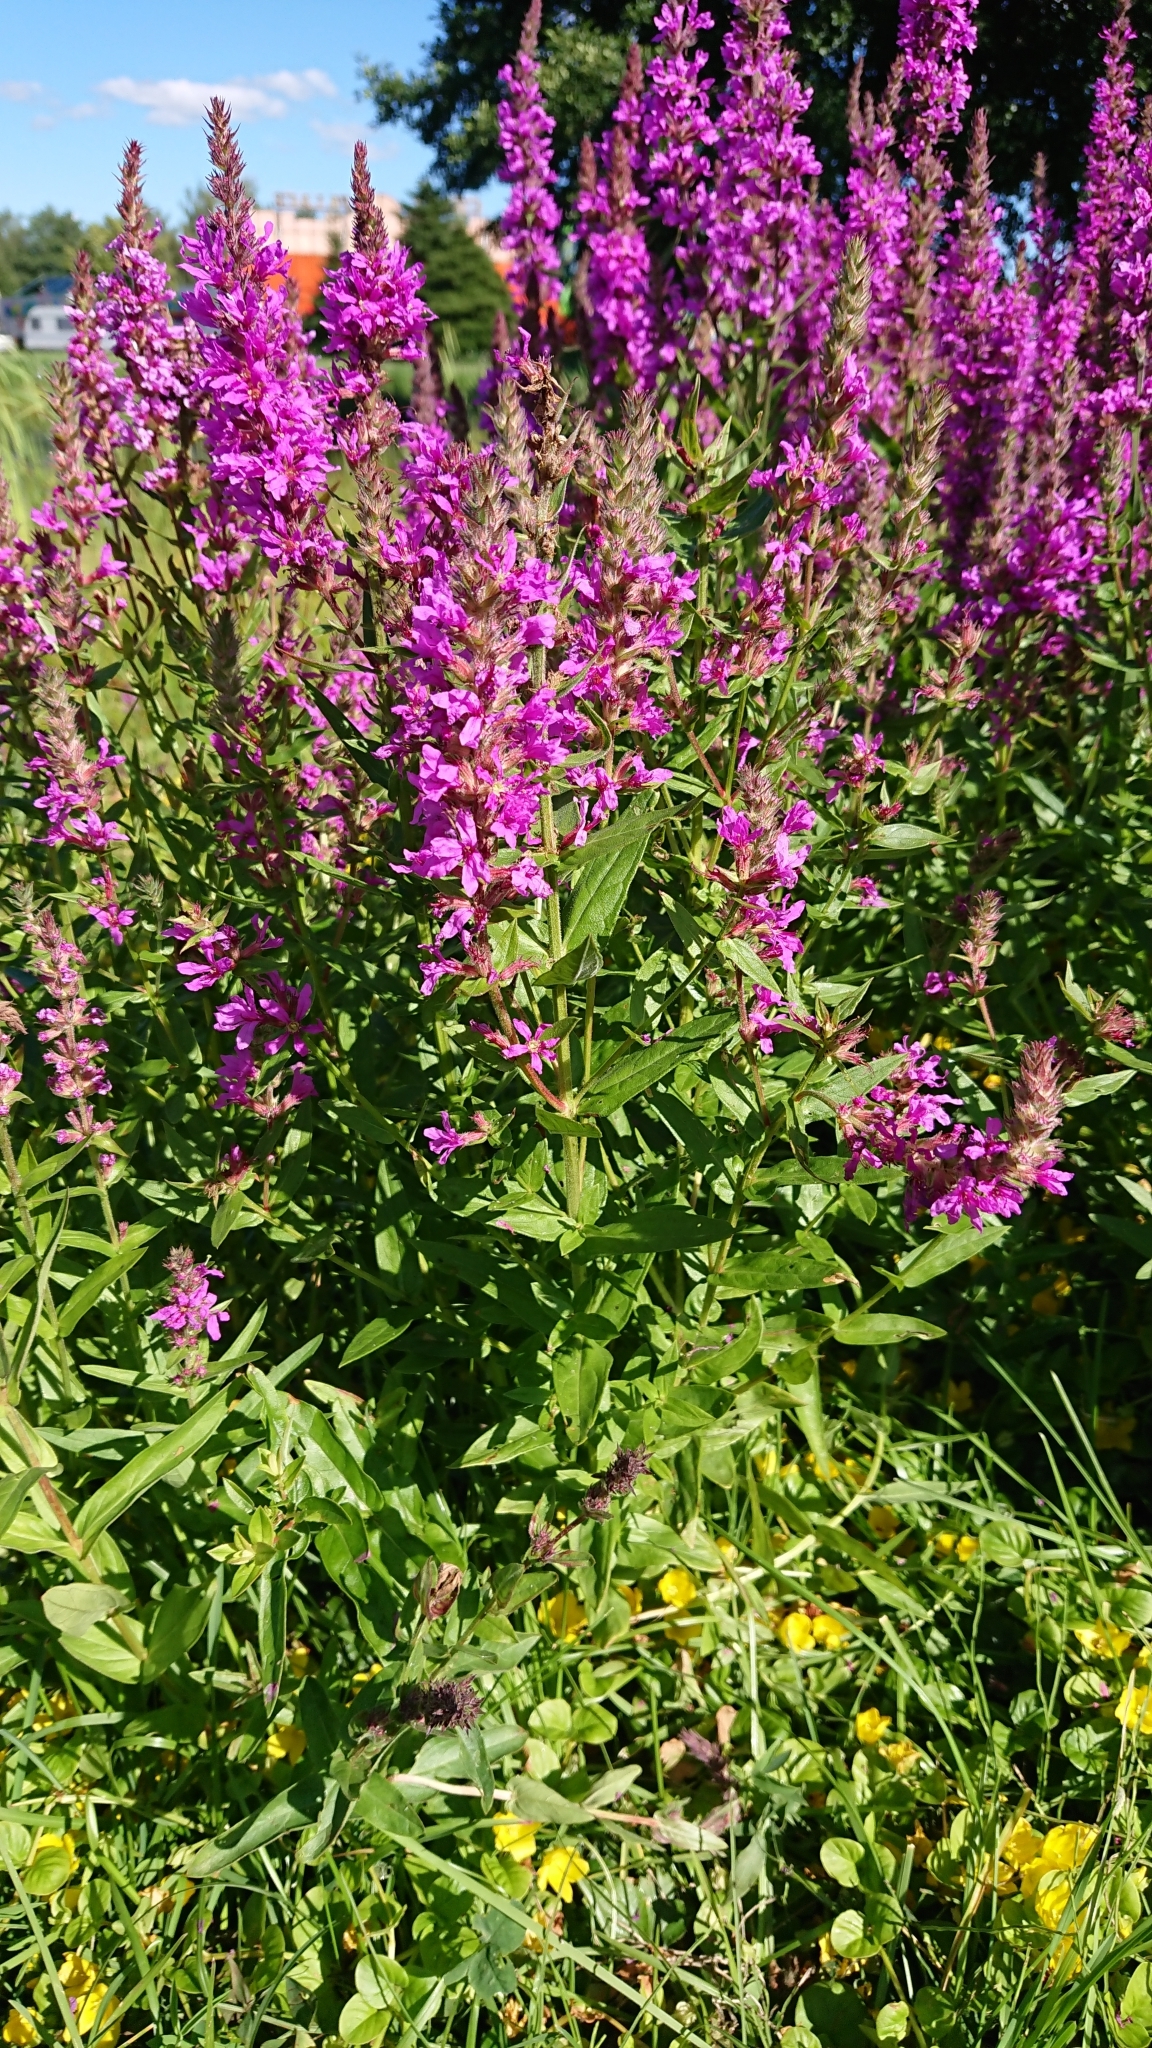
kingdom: Plantae
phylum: Tracheophyta
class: Magnoliopsida
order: Myrtales
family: Lythraceae
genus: Lythrum
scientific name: Lythrum salicaria
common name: Purple loosestrife
